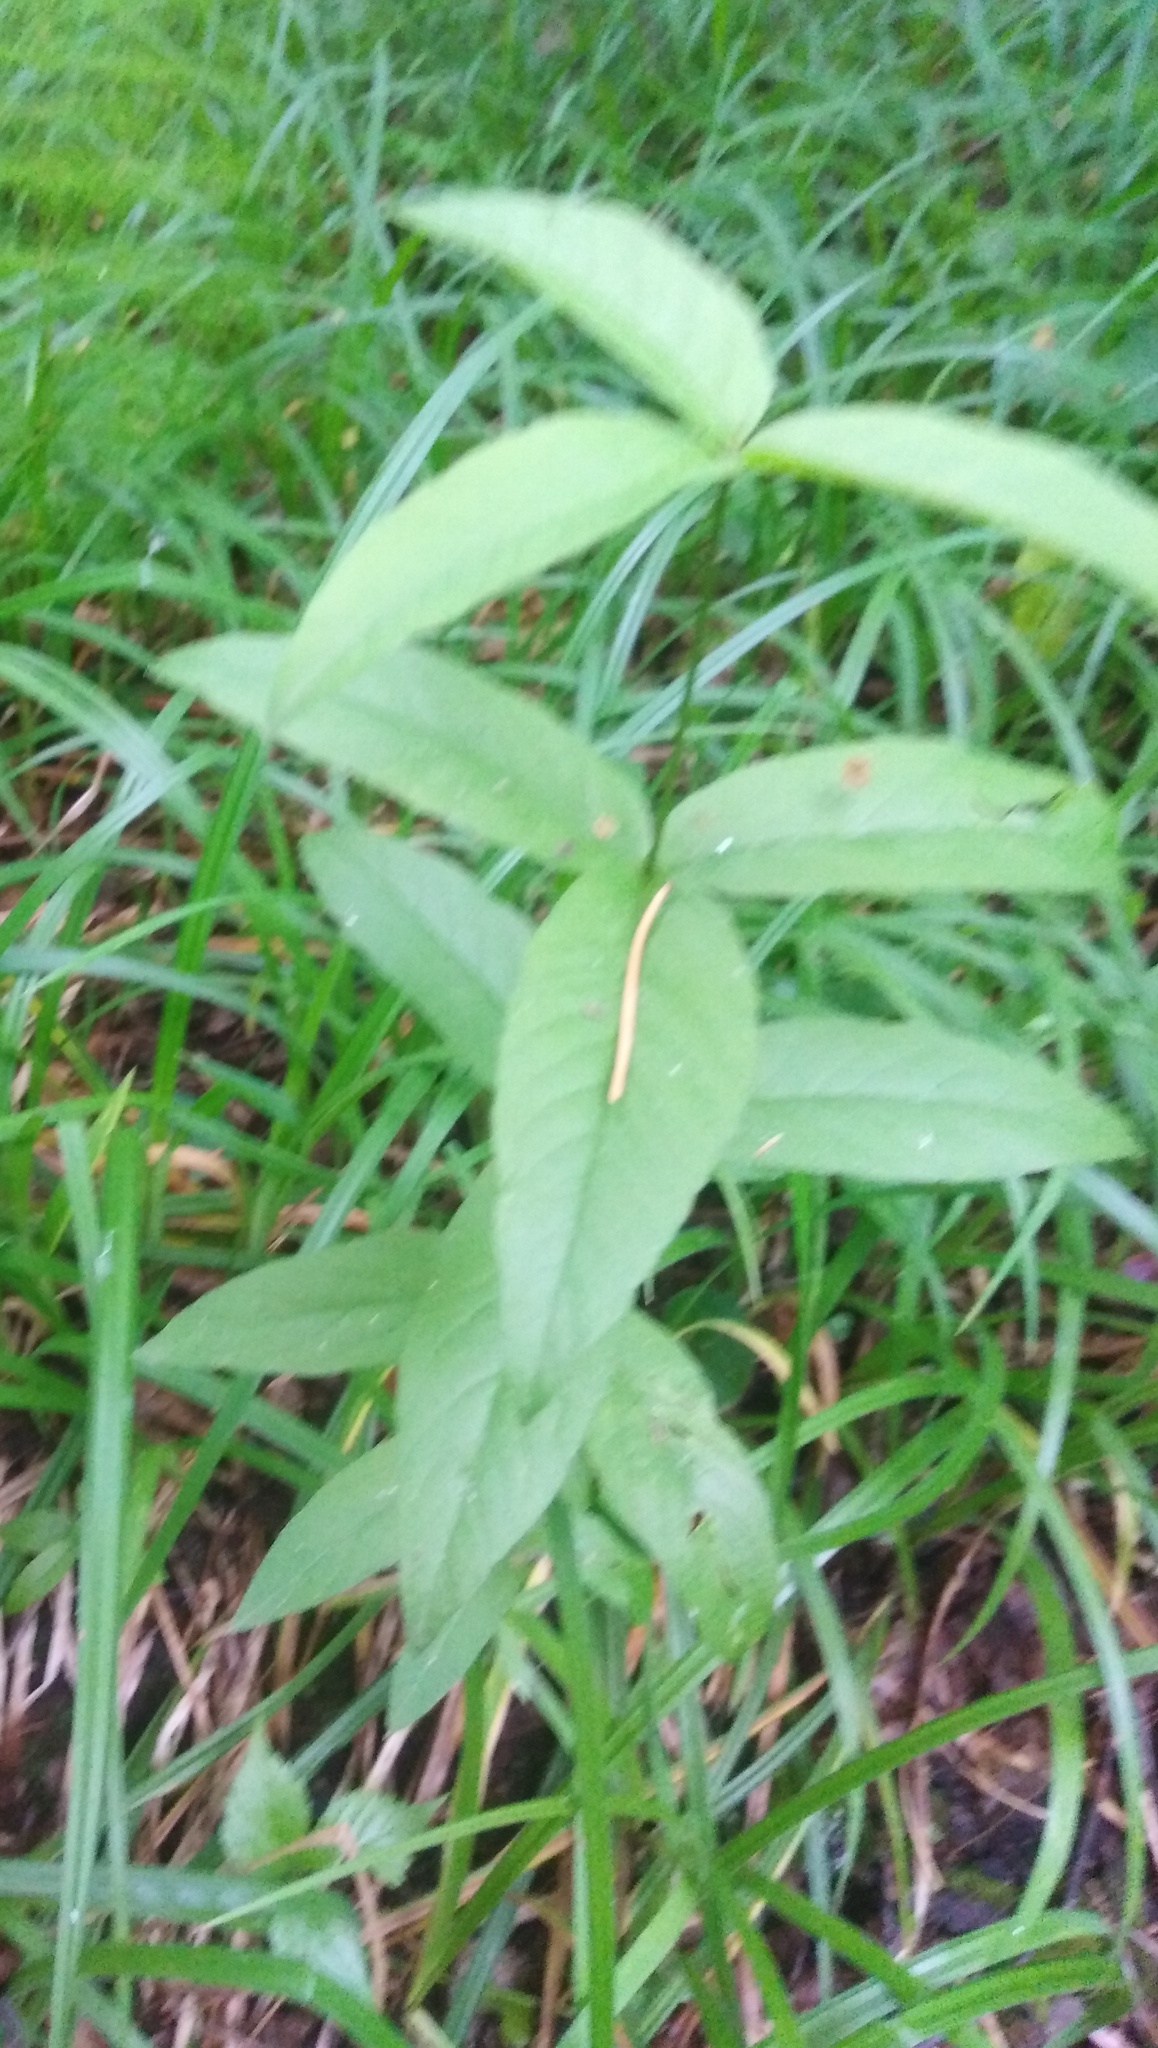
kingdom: Plantae
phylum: Tracheophyta
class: Magnoliopsida
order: Ericales
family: Primulaceae
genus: Lysimachia
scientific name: Lysimachia vulgaris
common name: Yellow loosestrife
